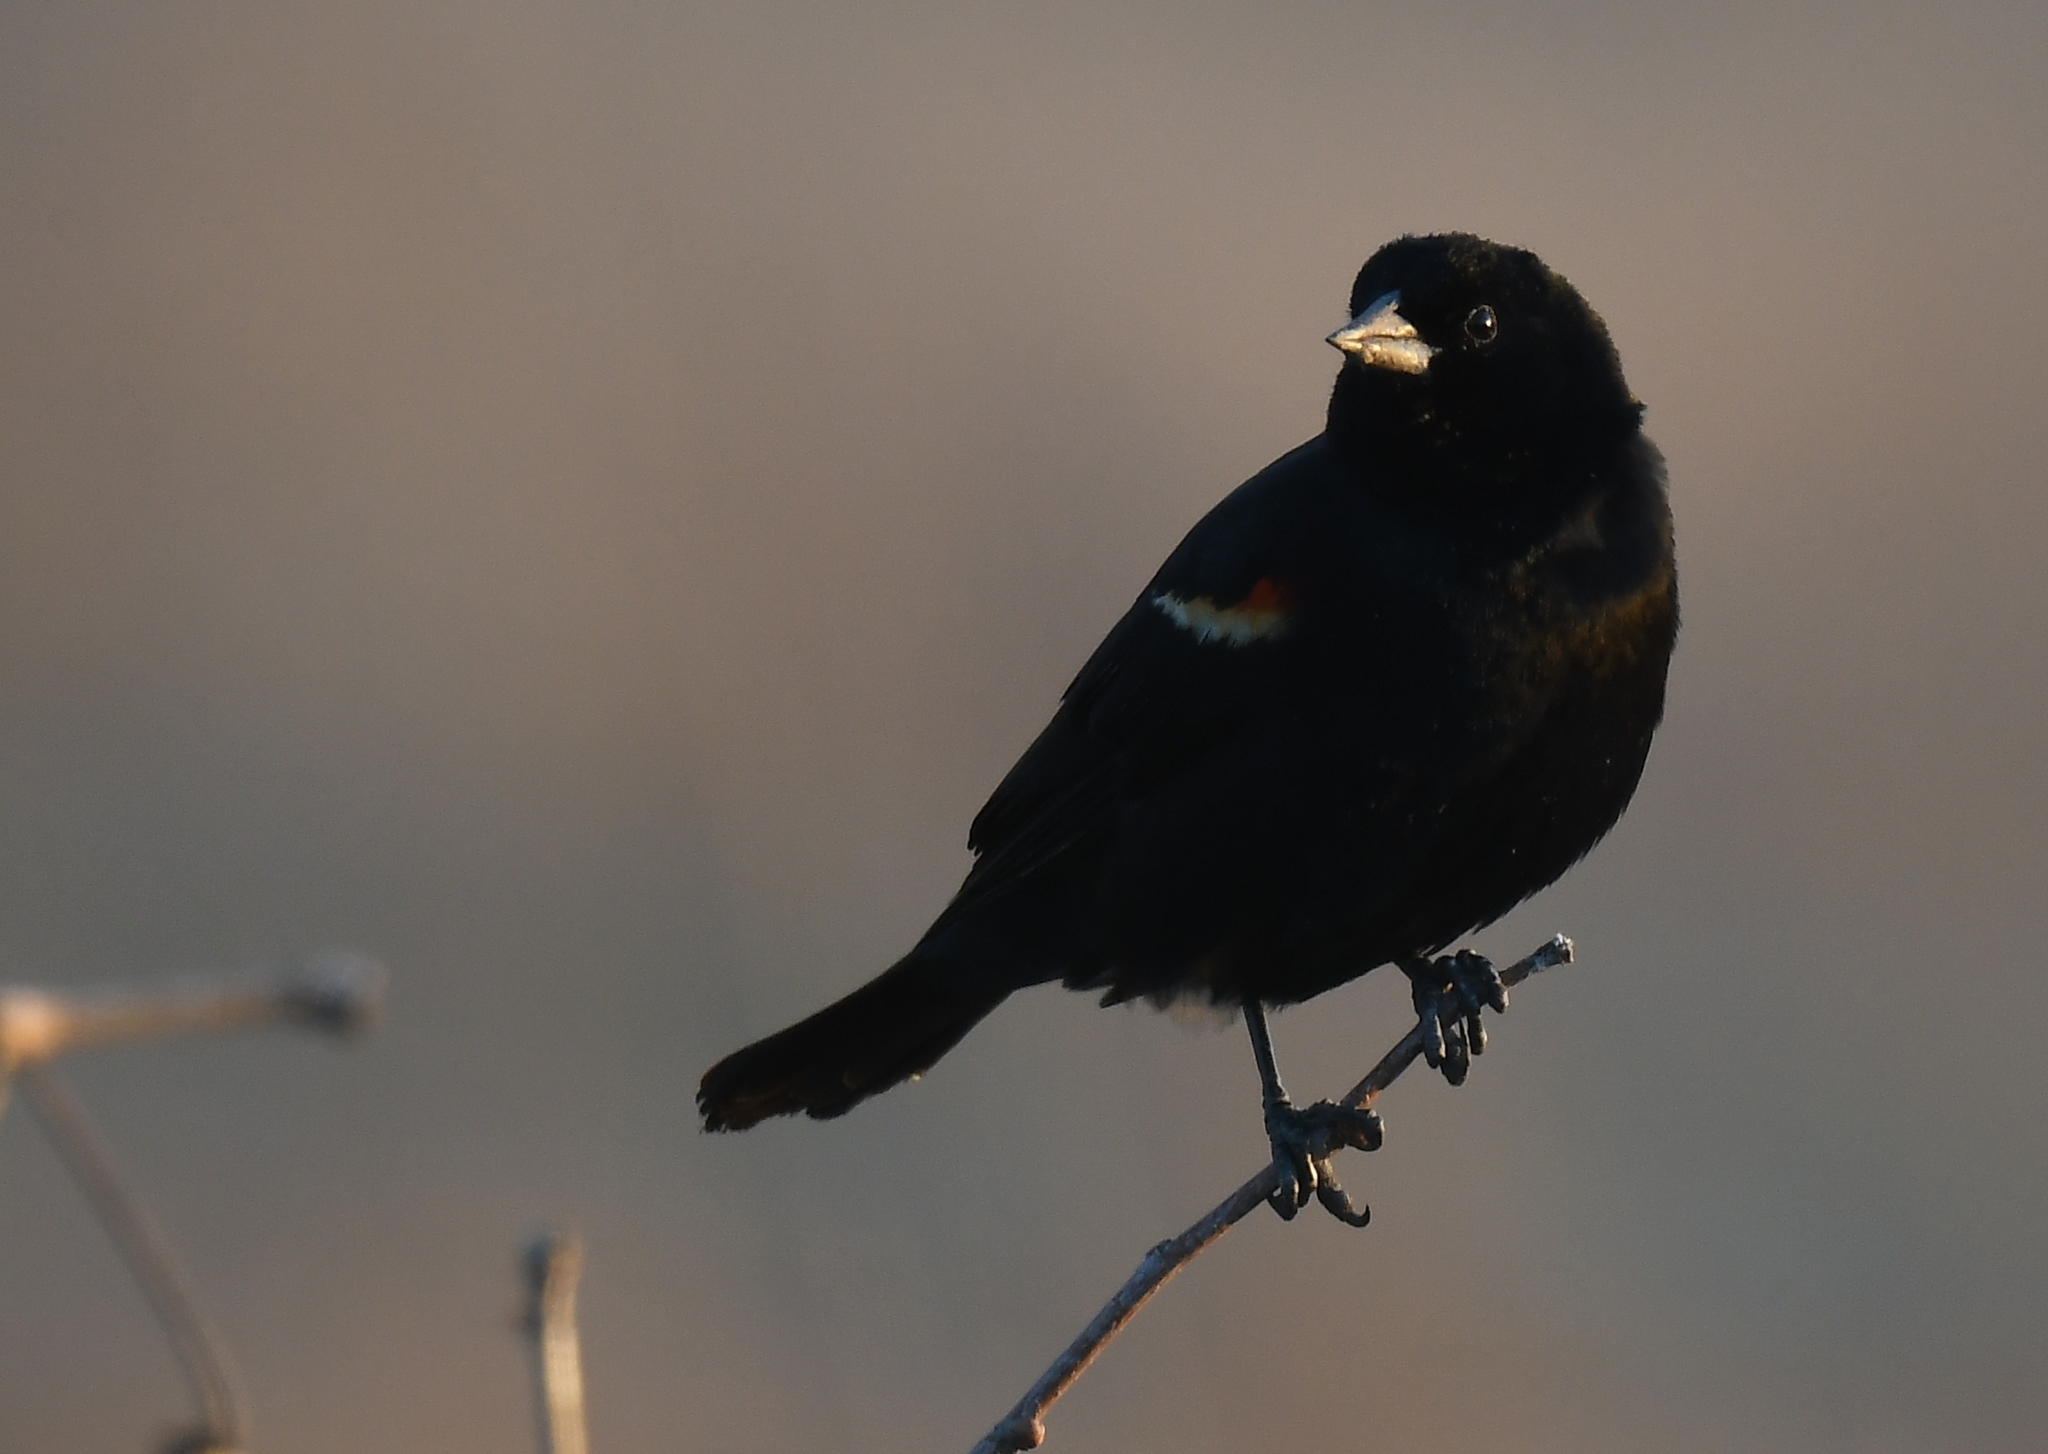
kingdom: Animalia
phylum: Chordata
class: Aves
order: Passeriformes
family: Icteridae
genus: Agelaius
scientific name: Agelaius phoeniceus
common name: Red-winged blackbird
